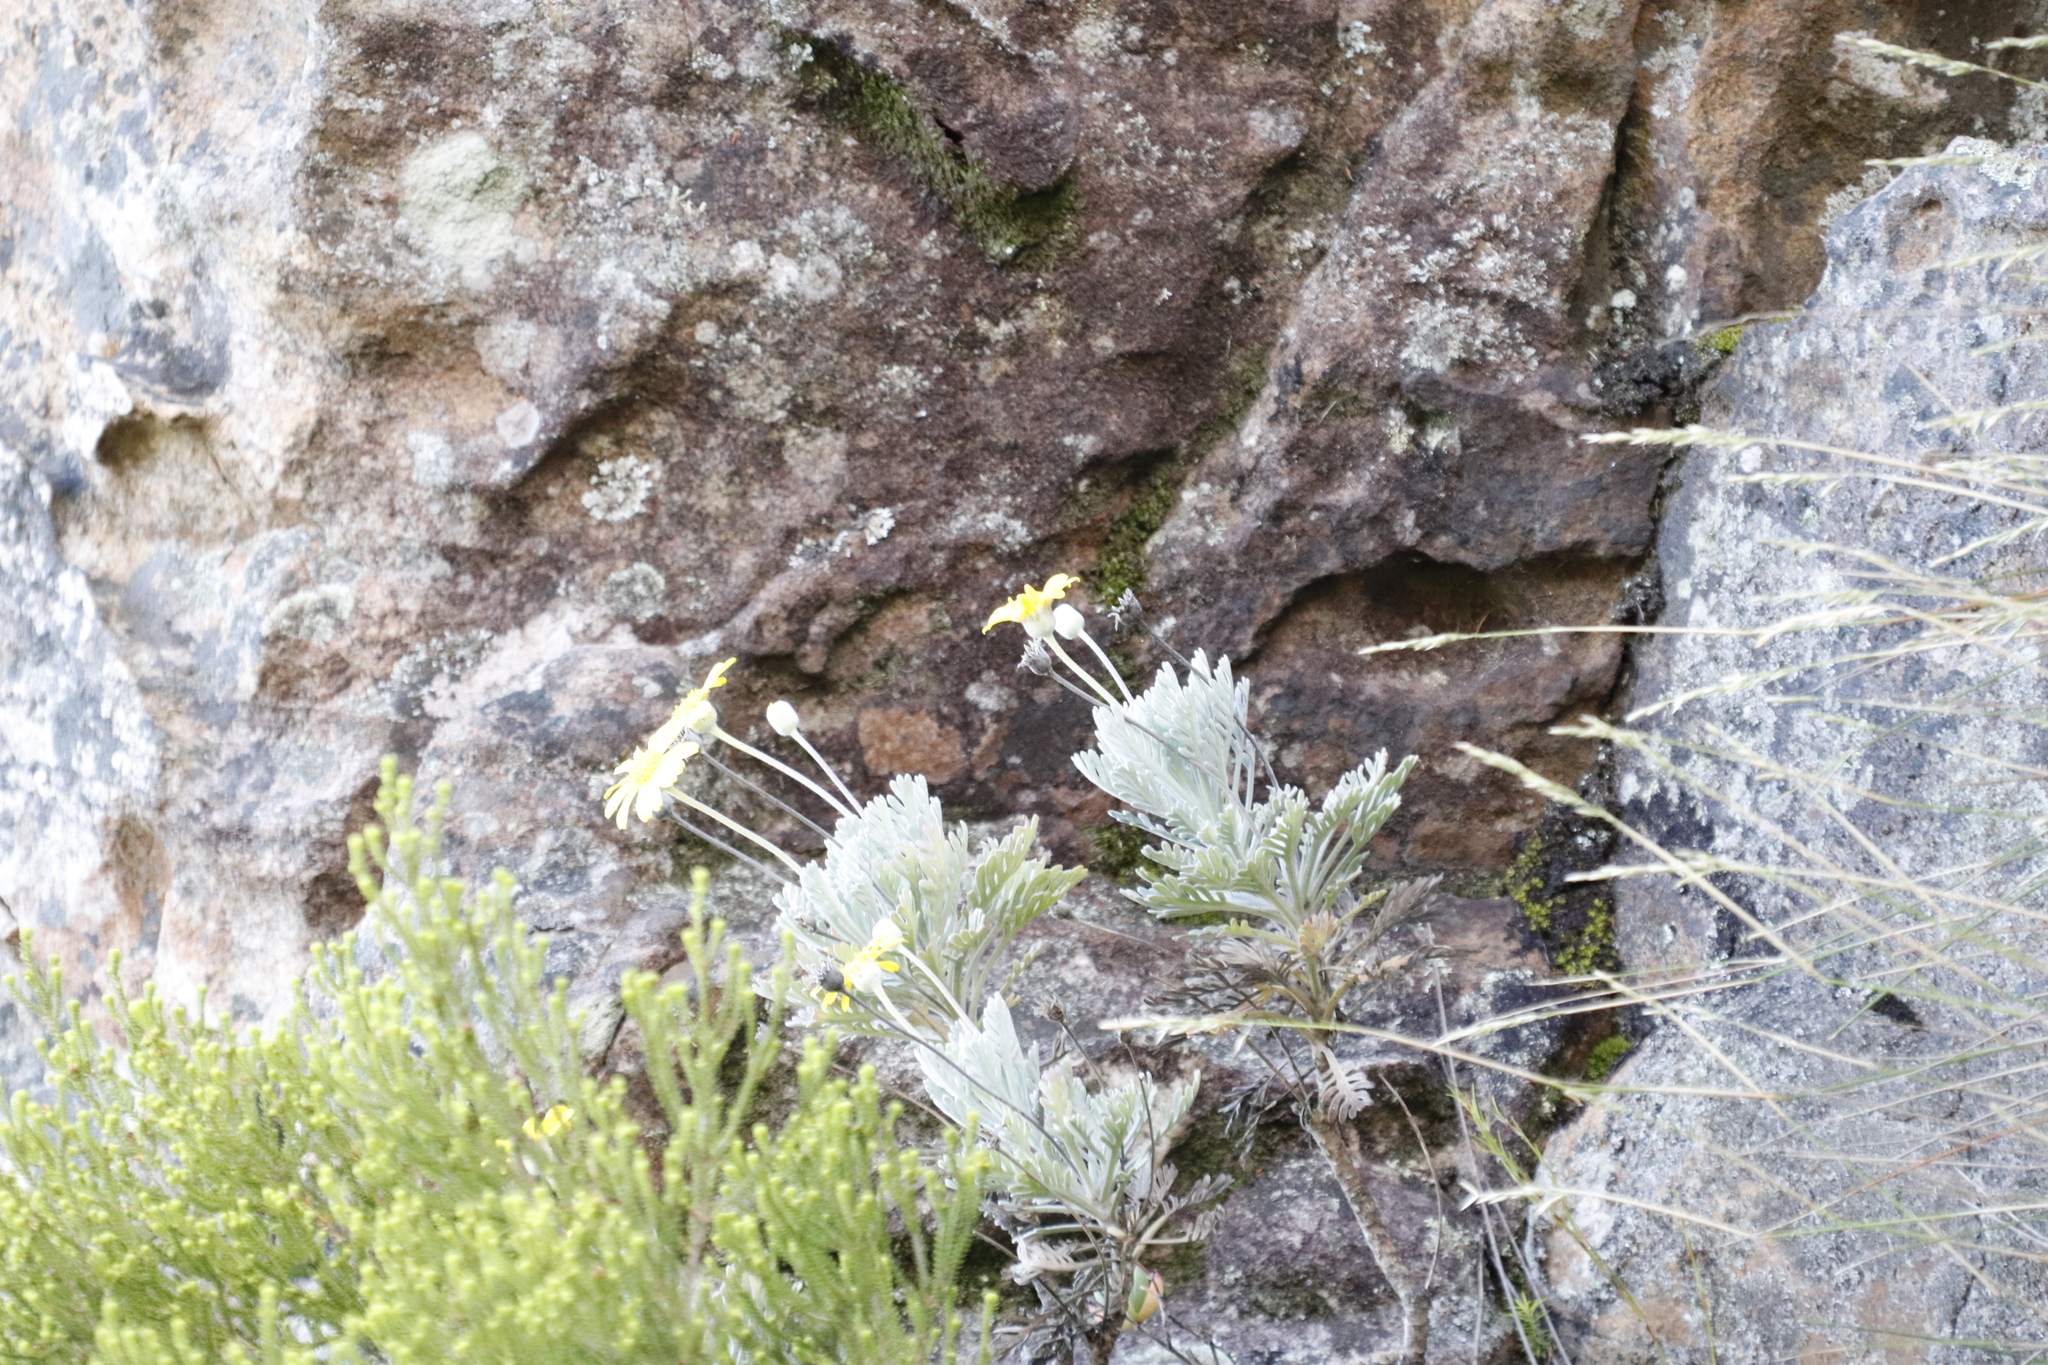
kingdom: Plantae
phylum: Tracheophyta
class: Magnoliopsida
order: Asterales
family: Asteraceae
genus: Euryops
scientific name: Euryops pectinatus
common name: Gray-leaf euryops
